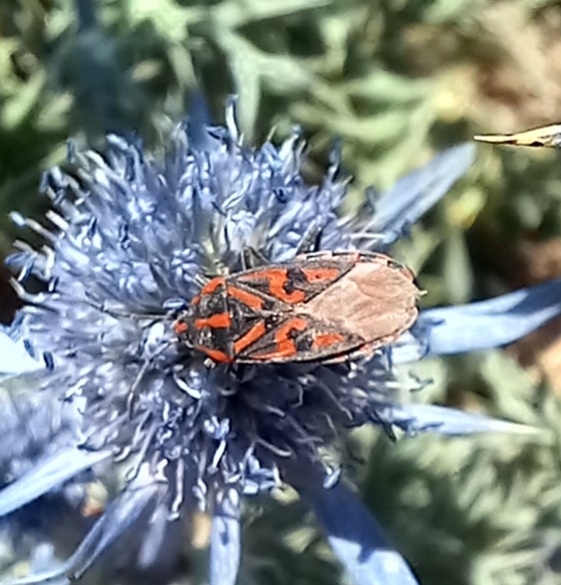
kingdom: Animalia
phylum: Arthropoda
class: Insecta
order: Hemiptera
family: Lygaeidae
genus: Spilostethus
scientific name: Spilostethus saxatilis
